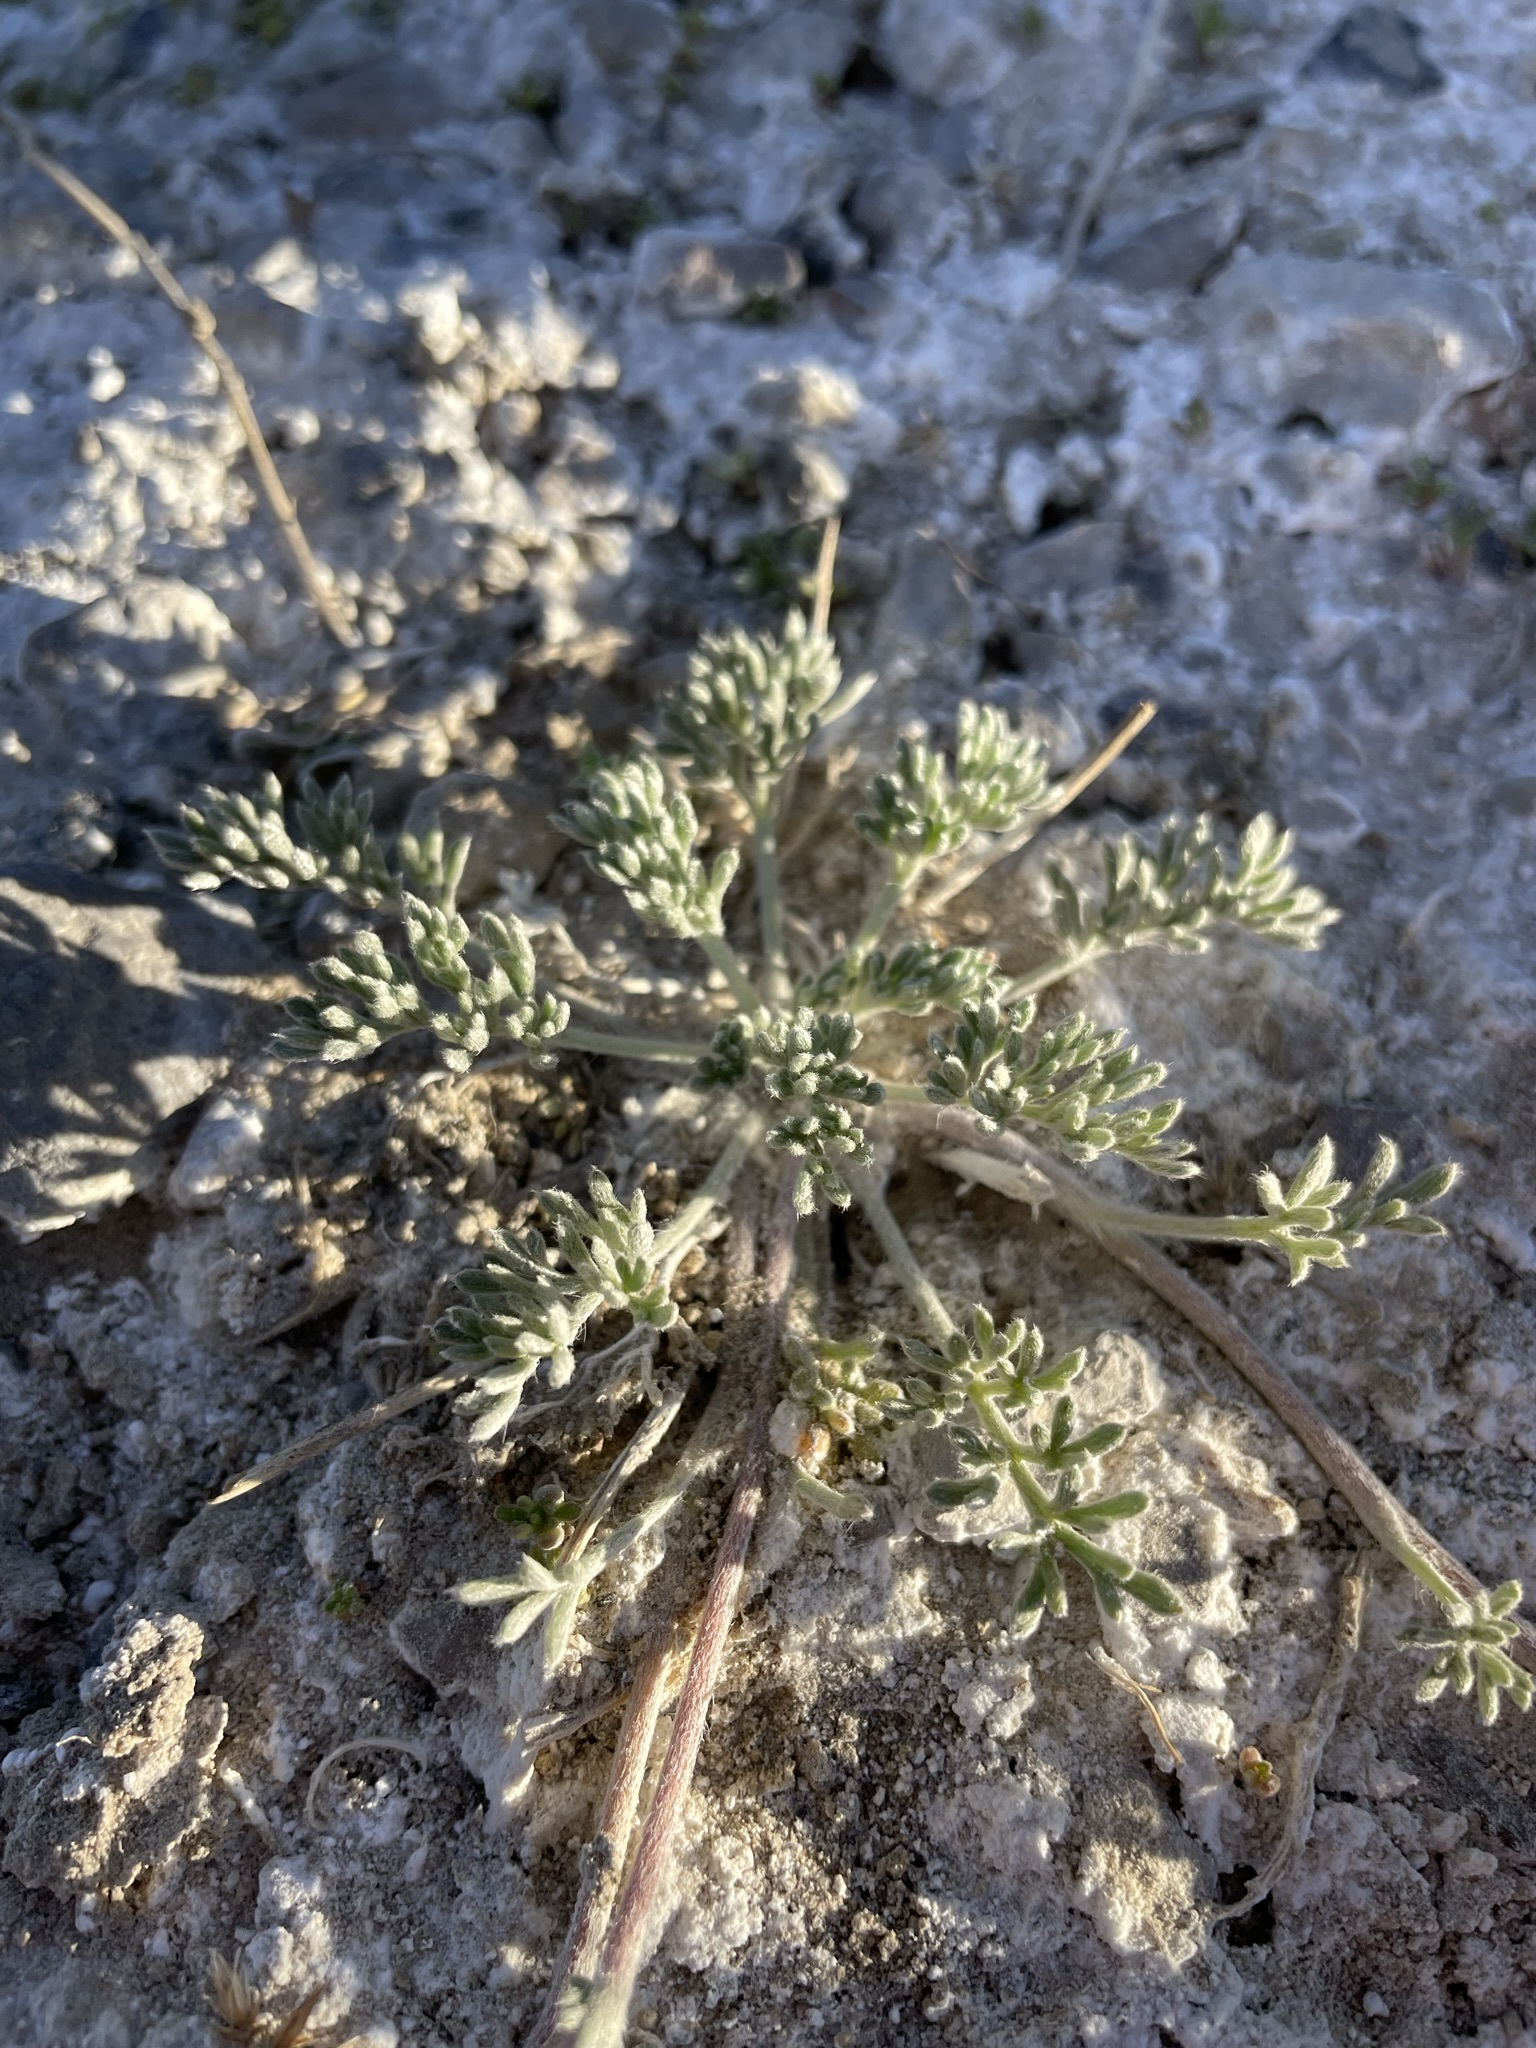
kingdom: Plantae
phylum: Tracheophyta
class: Magnoliopsida
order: Asterales
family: Asteraceae
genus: Artemisia
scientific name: Artemisia potentilloides
